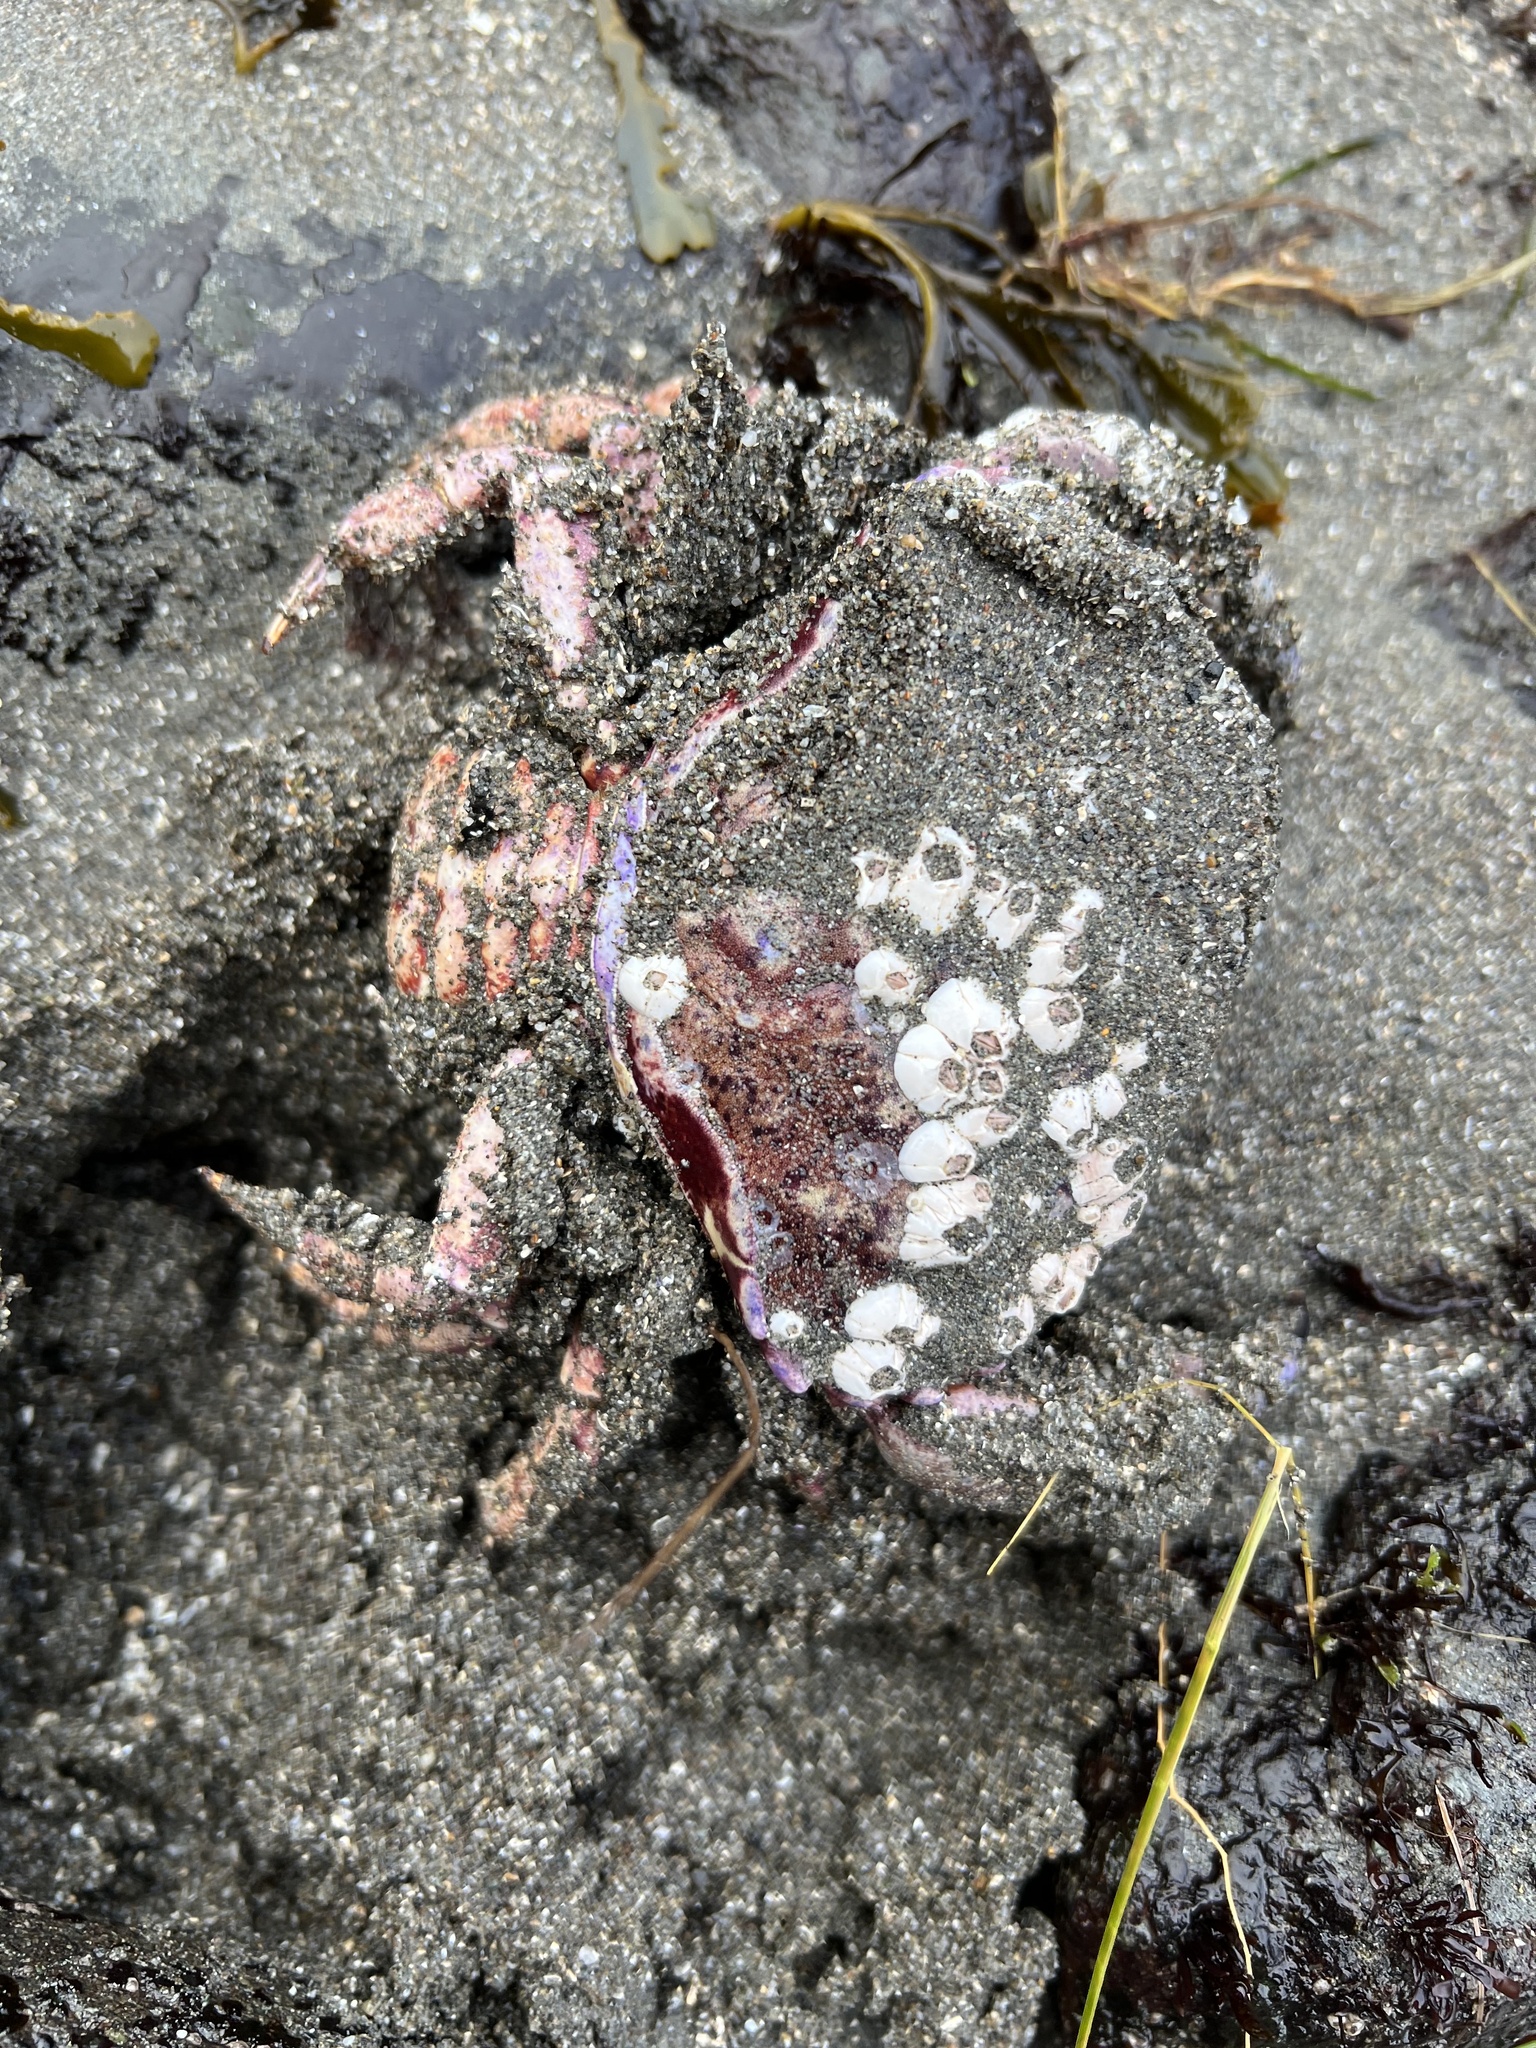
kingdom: Animalia
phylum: Arthropoda
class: Malacostraca
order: Decapoda
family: Cancridae
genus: Romaleon
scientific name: Romaleon antennarium
